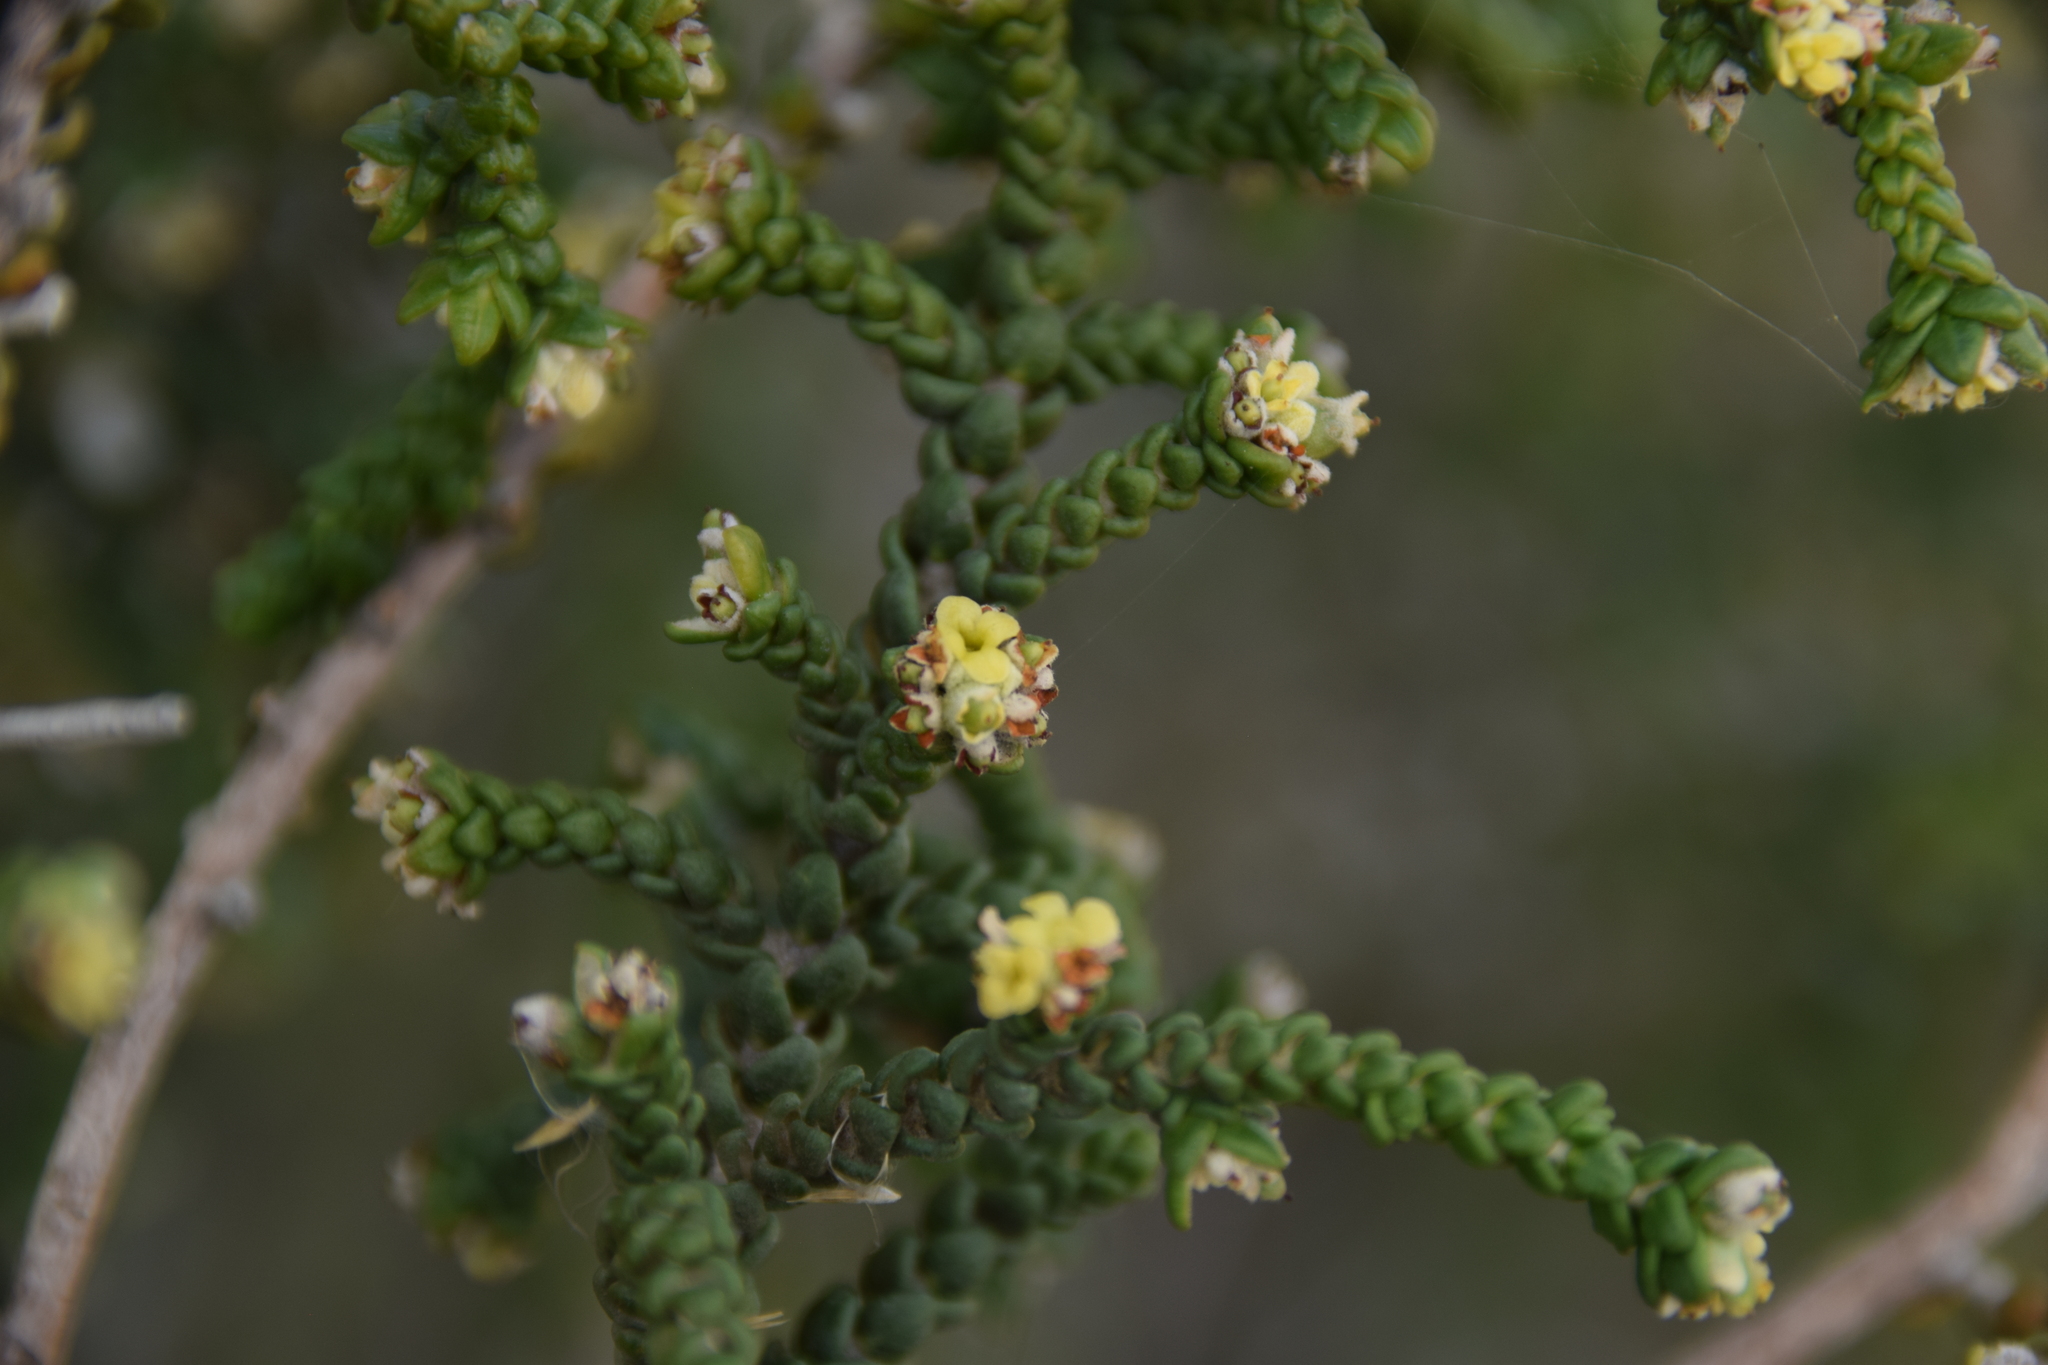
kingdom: Plantae
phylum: Tracheophyta
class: Magnoliopsida
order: Malvales
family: Thymelaeaceae
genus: Thymelaea
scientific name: Thymelaea hirsuta
